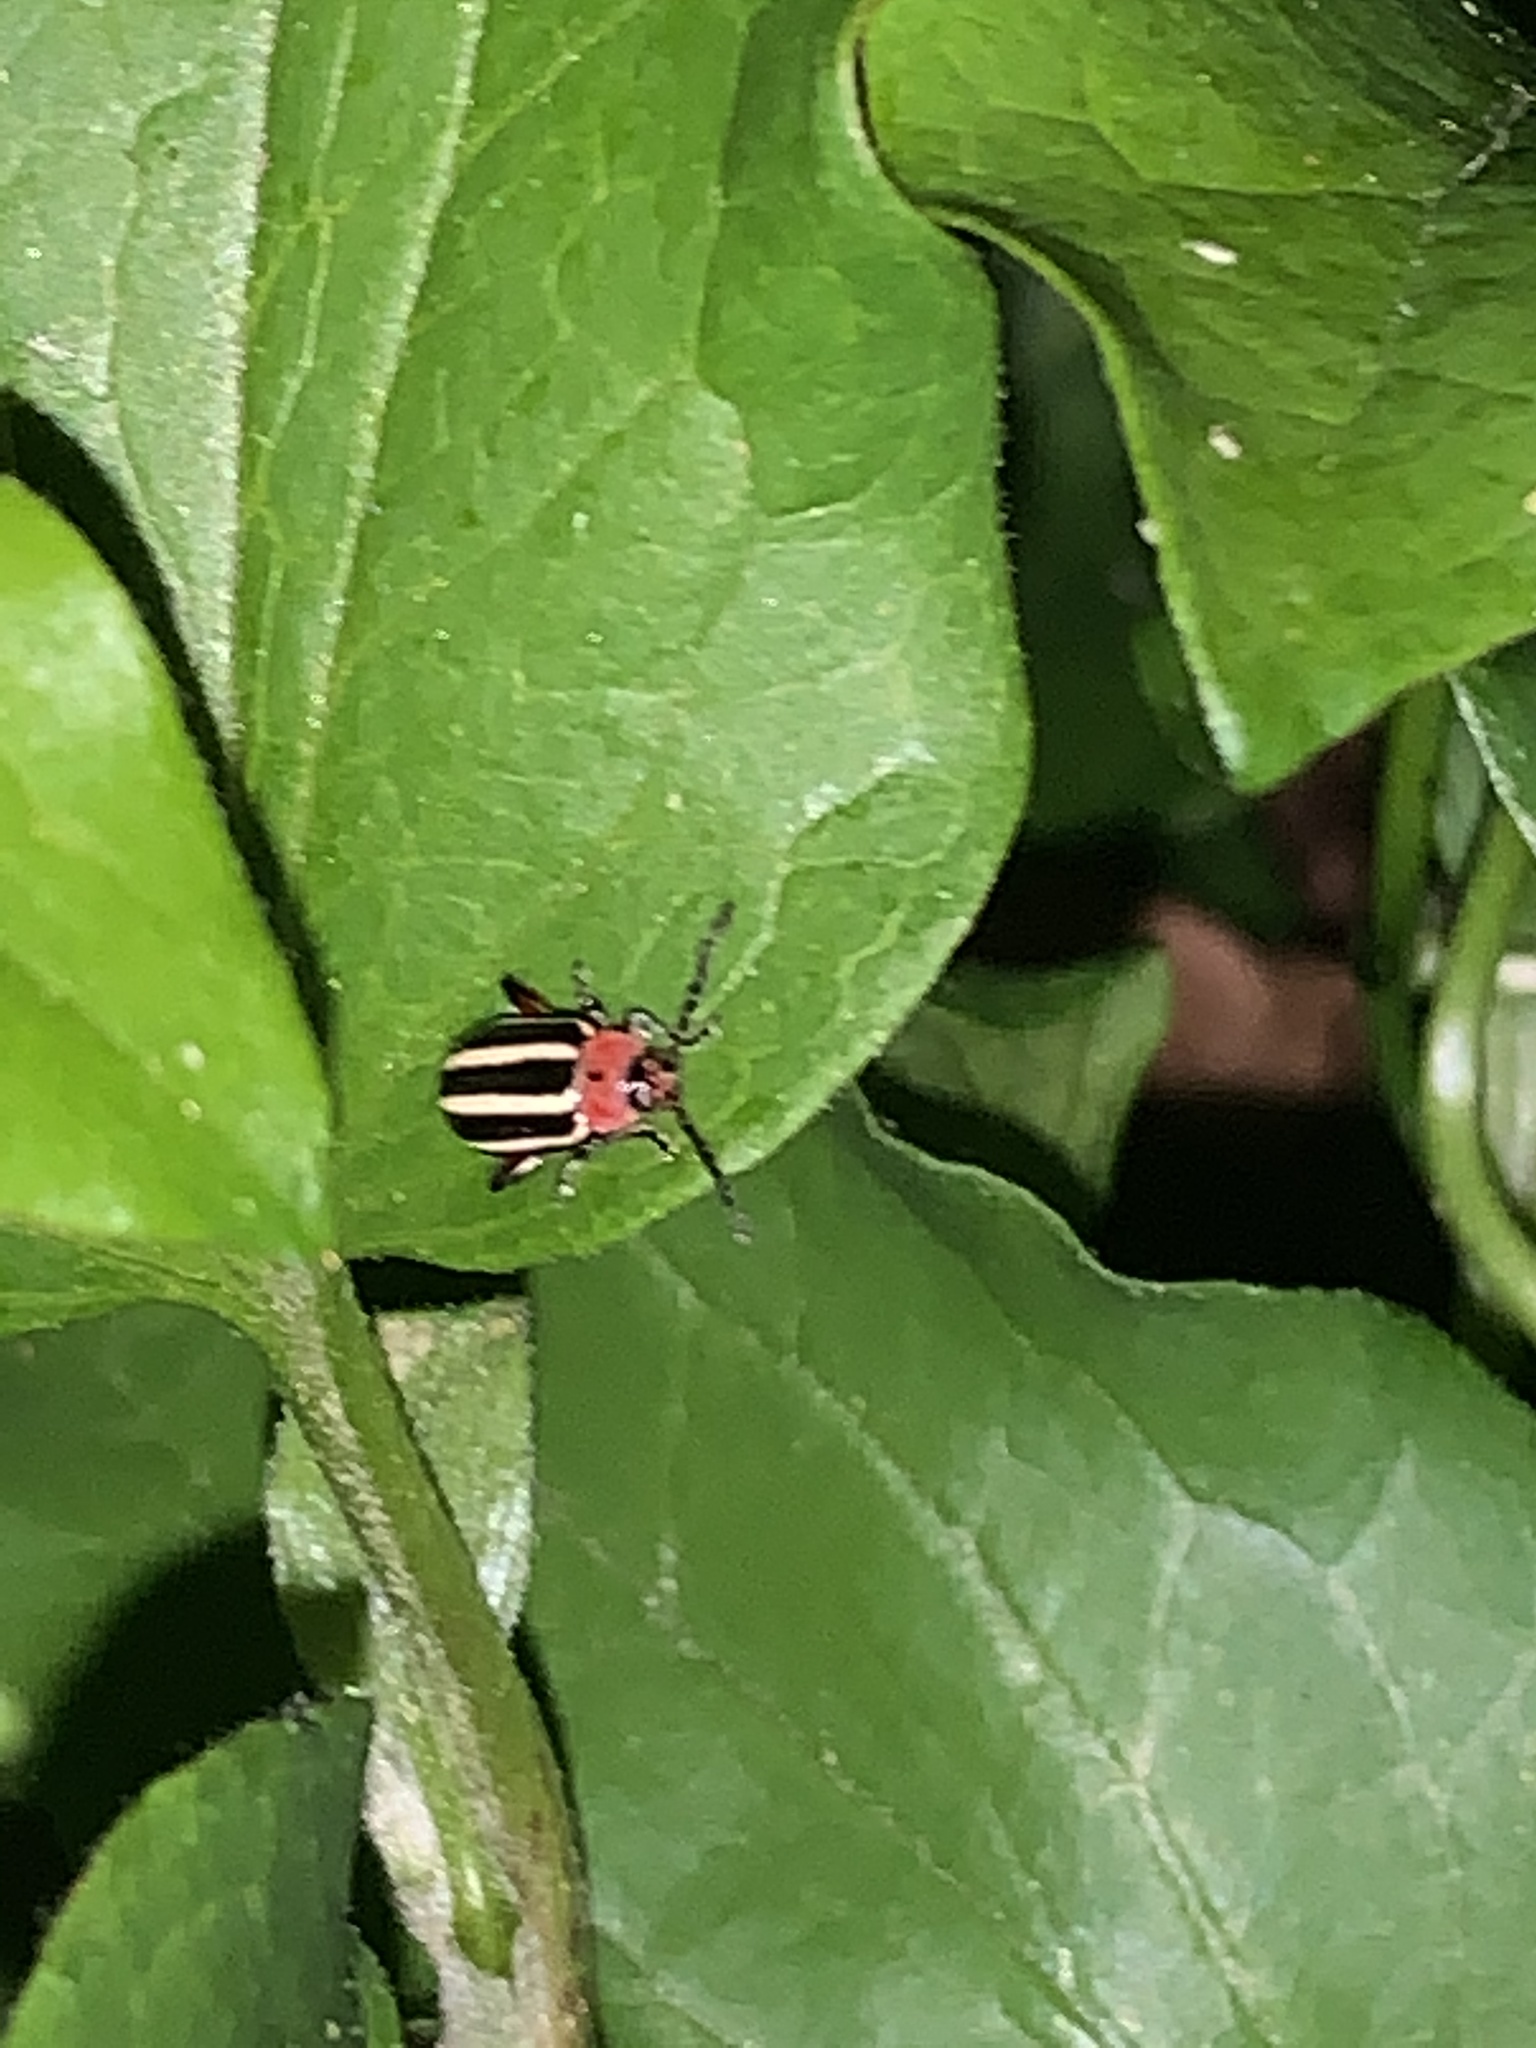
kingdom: Animalia
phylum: Arthropoda
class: Insecta
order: Coleoptera
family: Chrysomelidae
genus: Disonycha
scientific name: Disonycha glabrata
